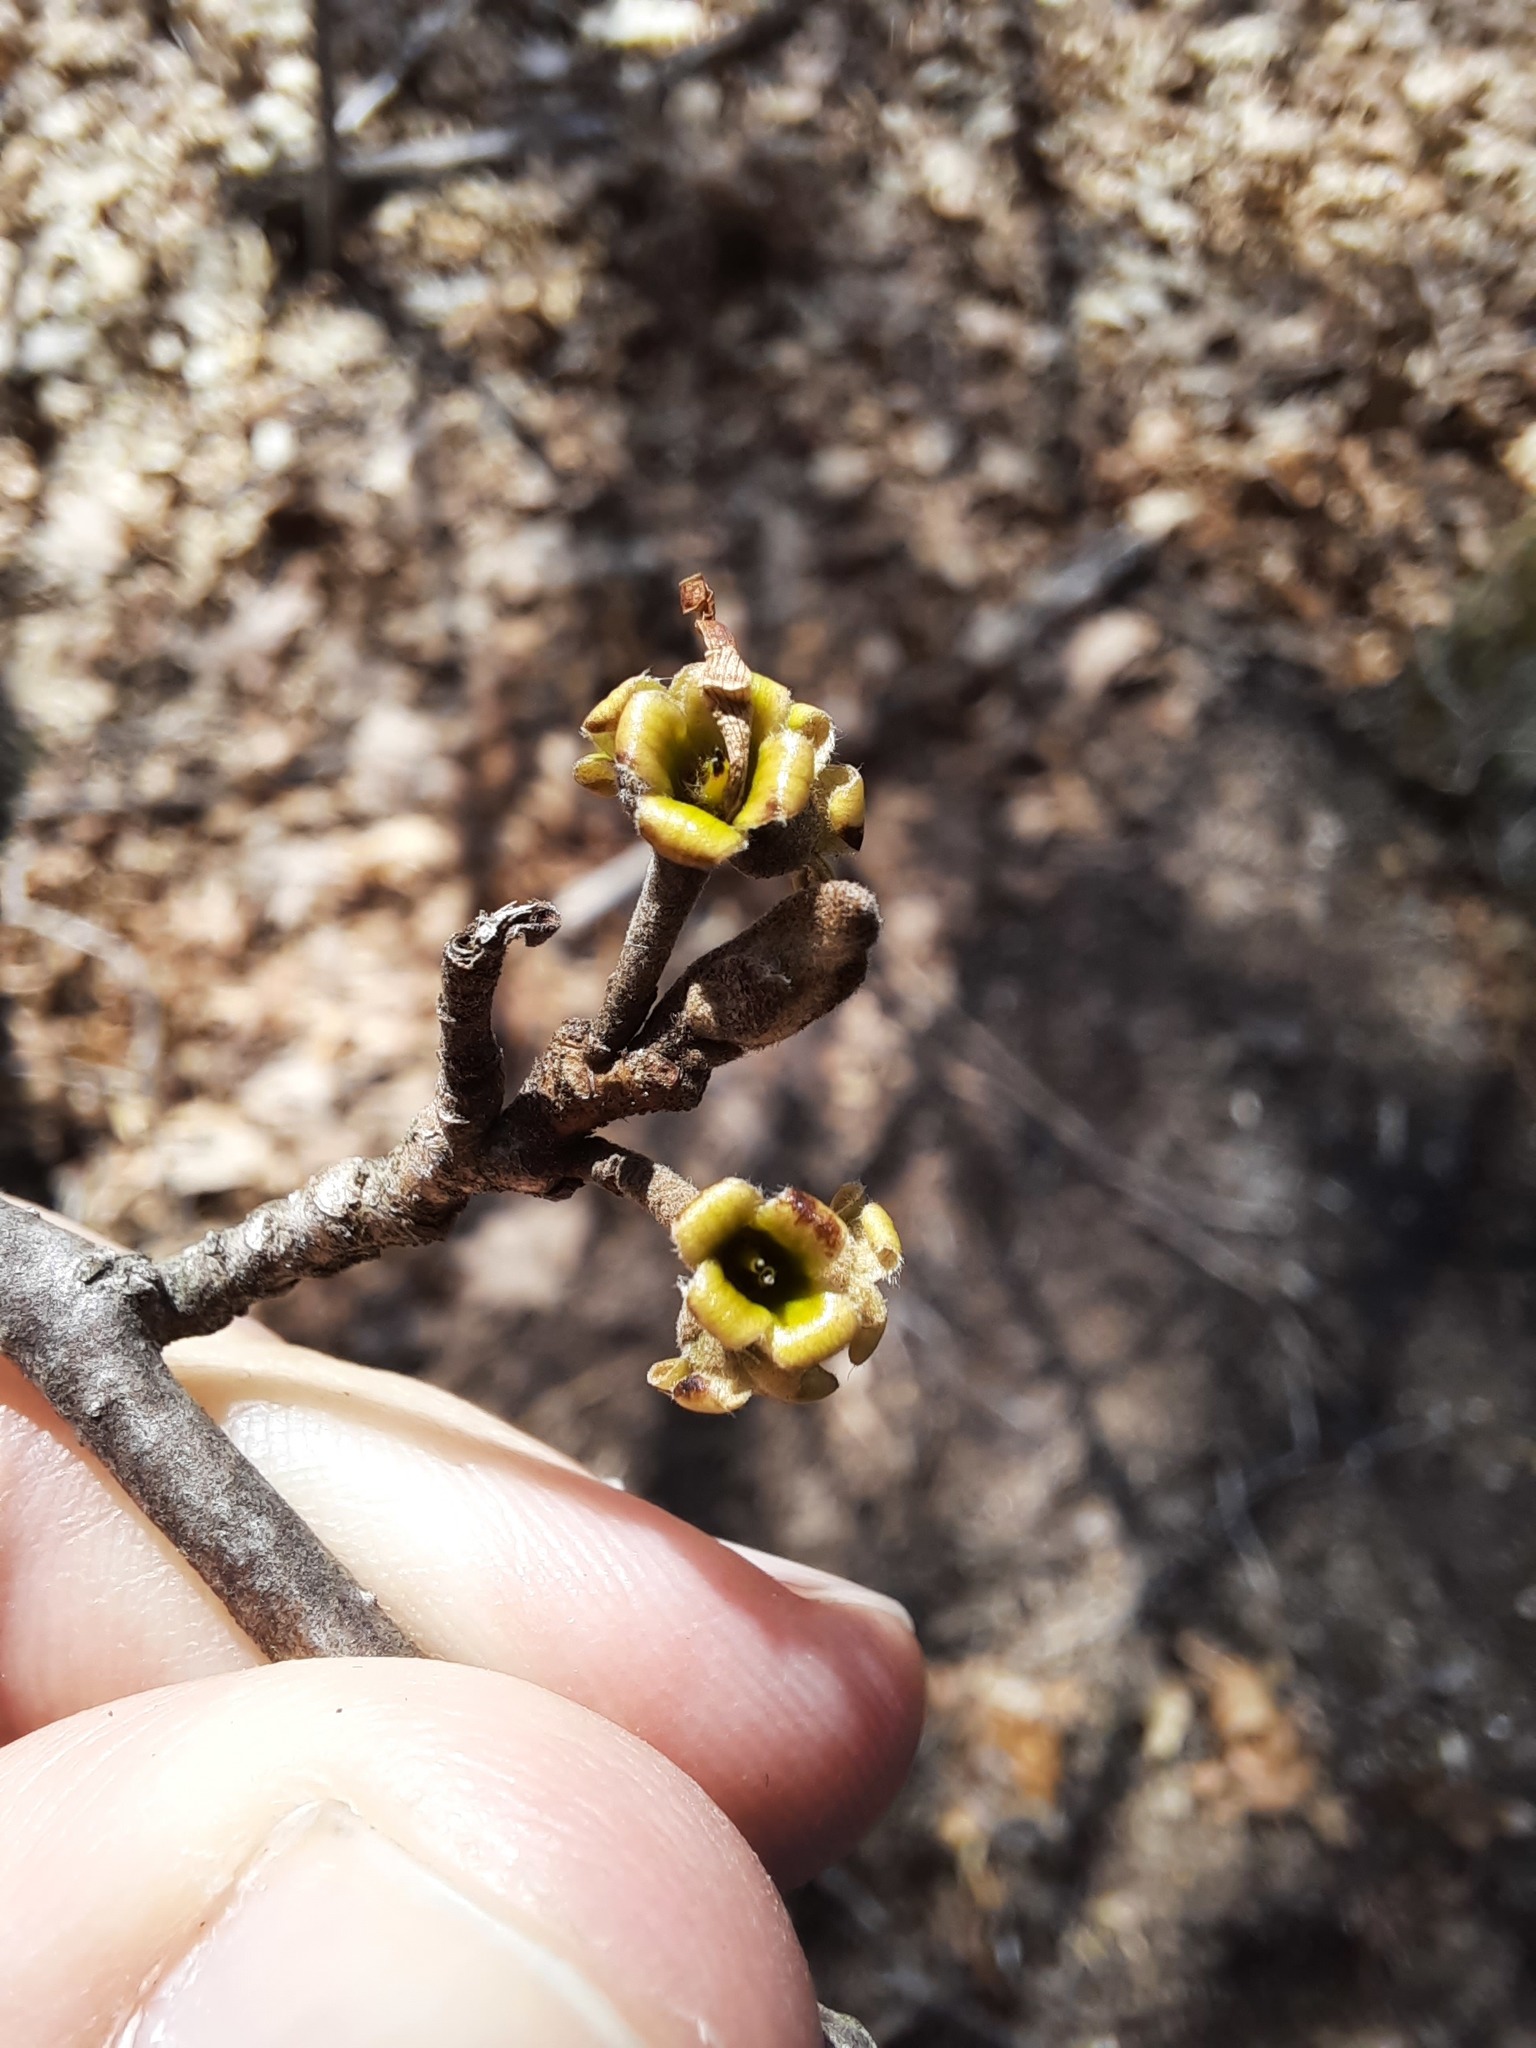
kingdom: Plantae
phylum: Tracheophyta
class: Magnoliopsida
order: Saxifragales
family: Hamamelidaceae
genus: Hamamelis
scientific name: Hamamelis virginiana
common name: Witch-hazel
